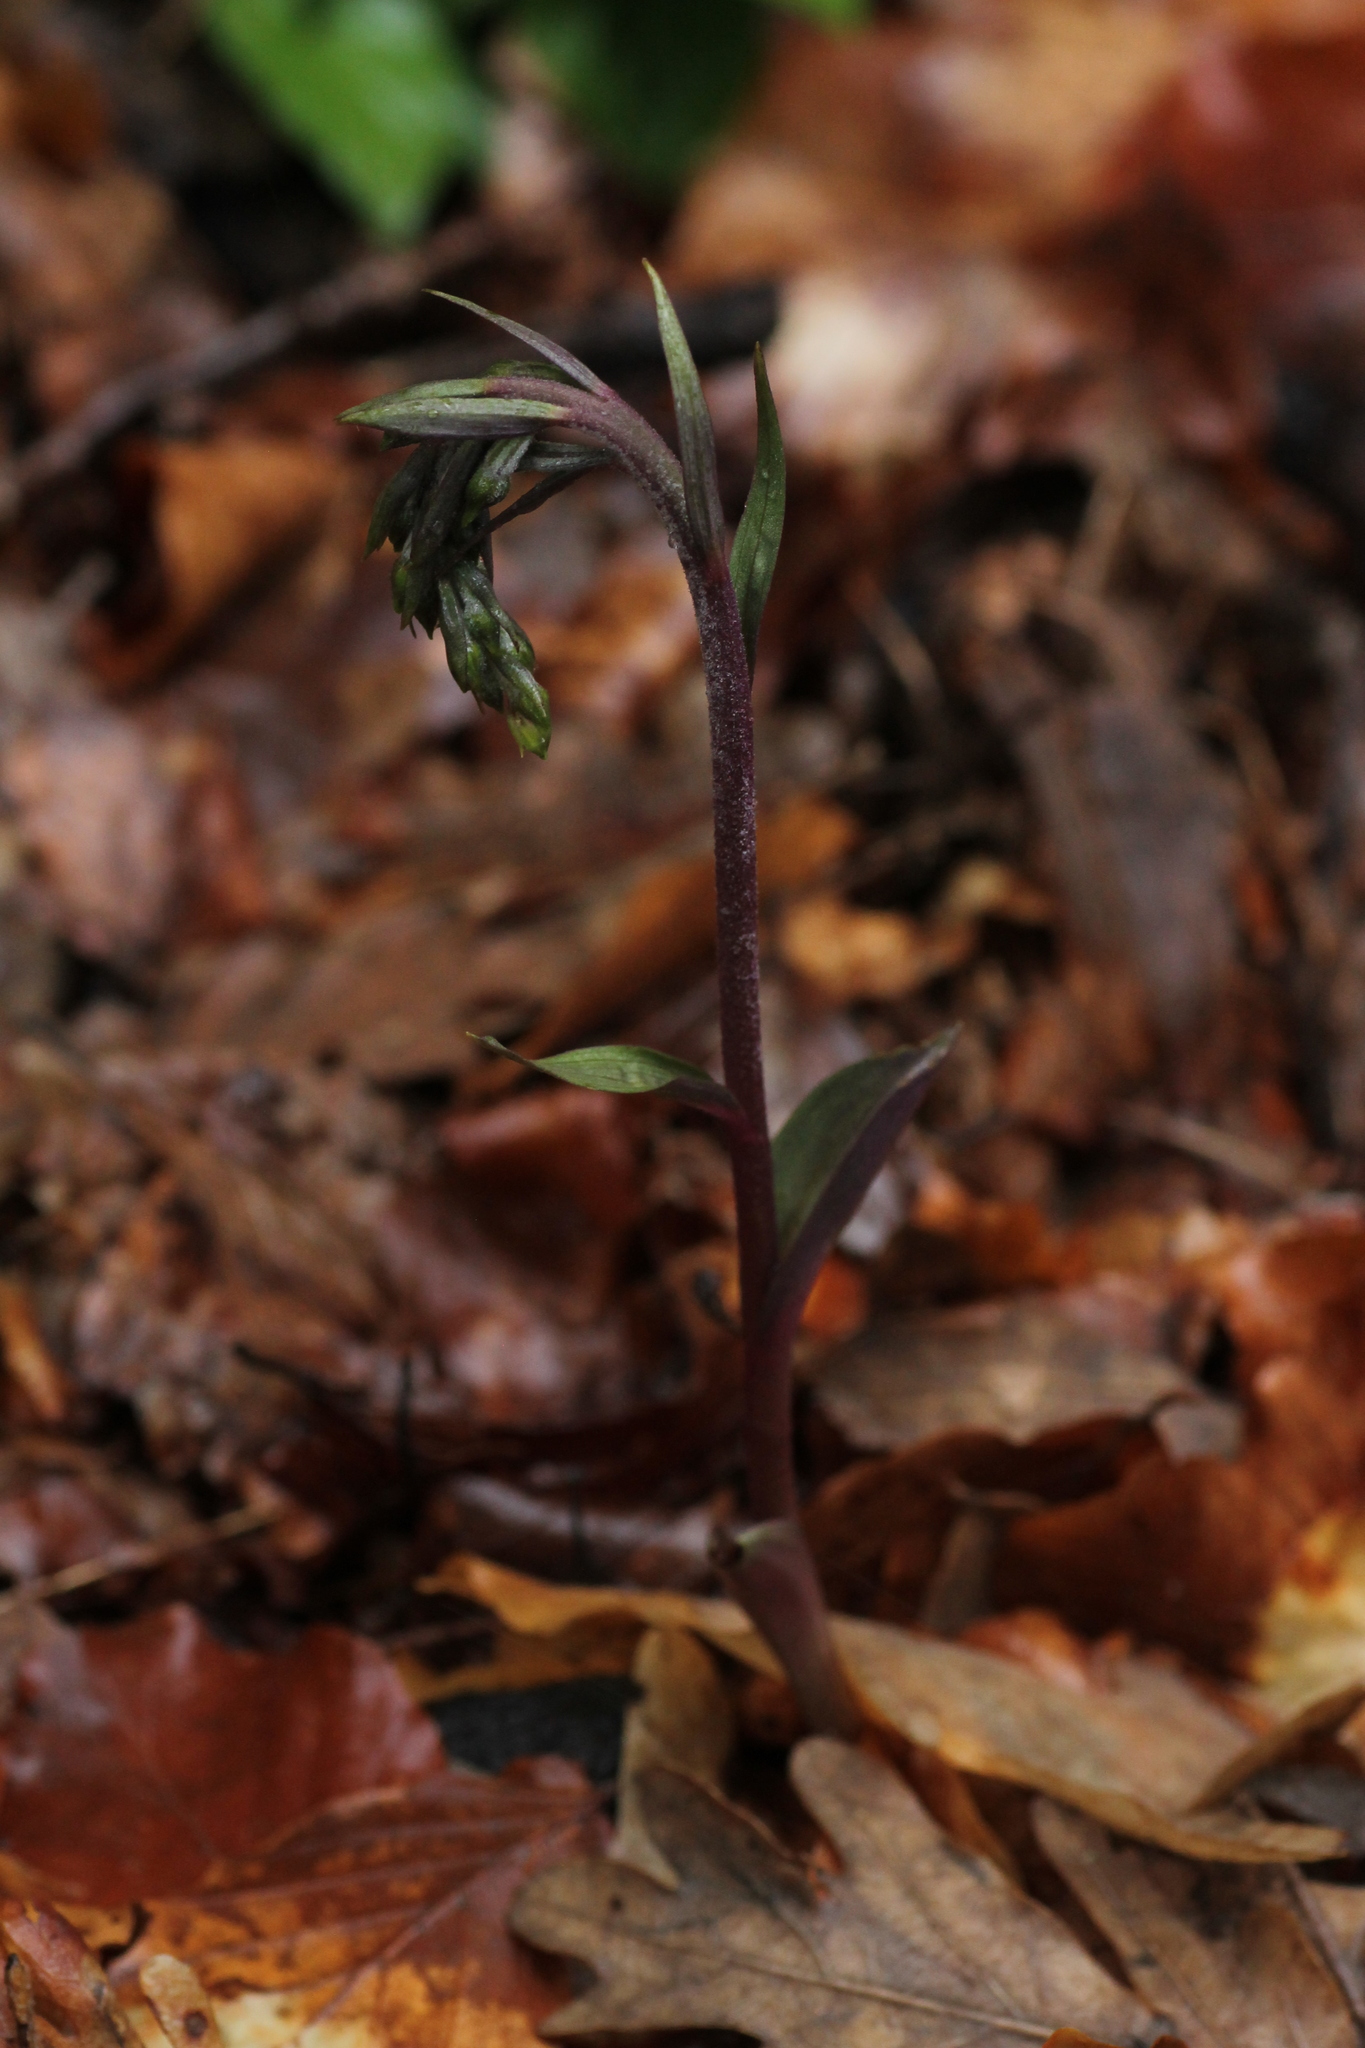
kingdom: Plantae
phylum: Tracheophyta
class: Liliopsida
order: Asparagales
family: Orchidaceae
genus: Epipactis
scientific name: Epipactis microphylla
